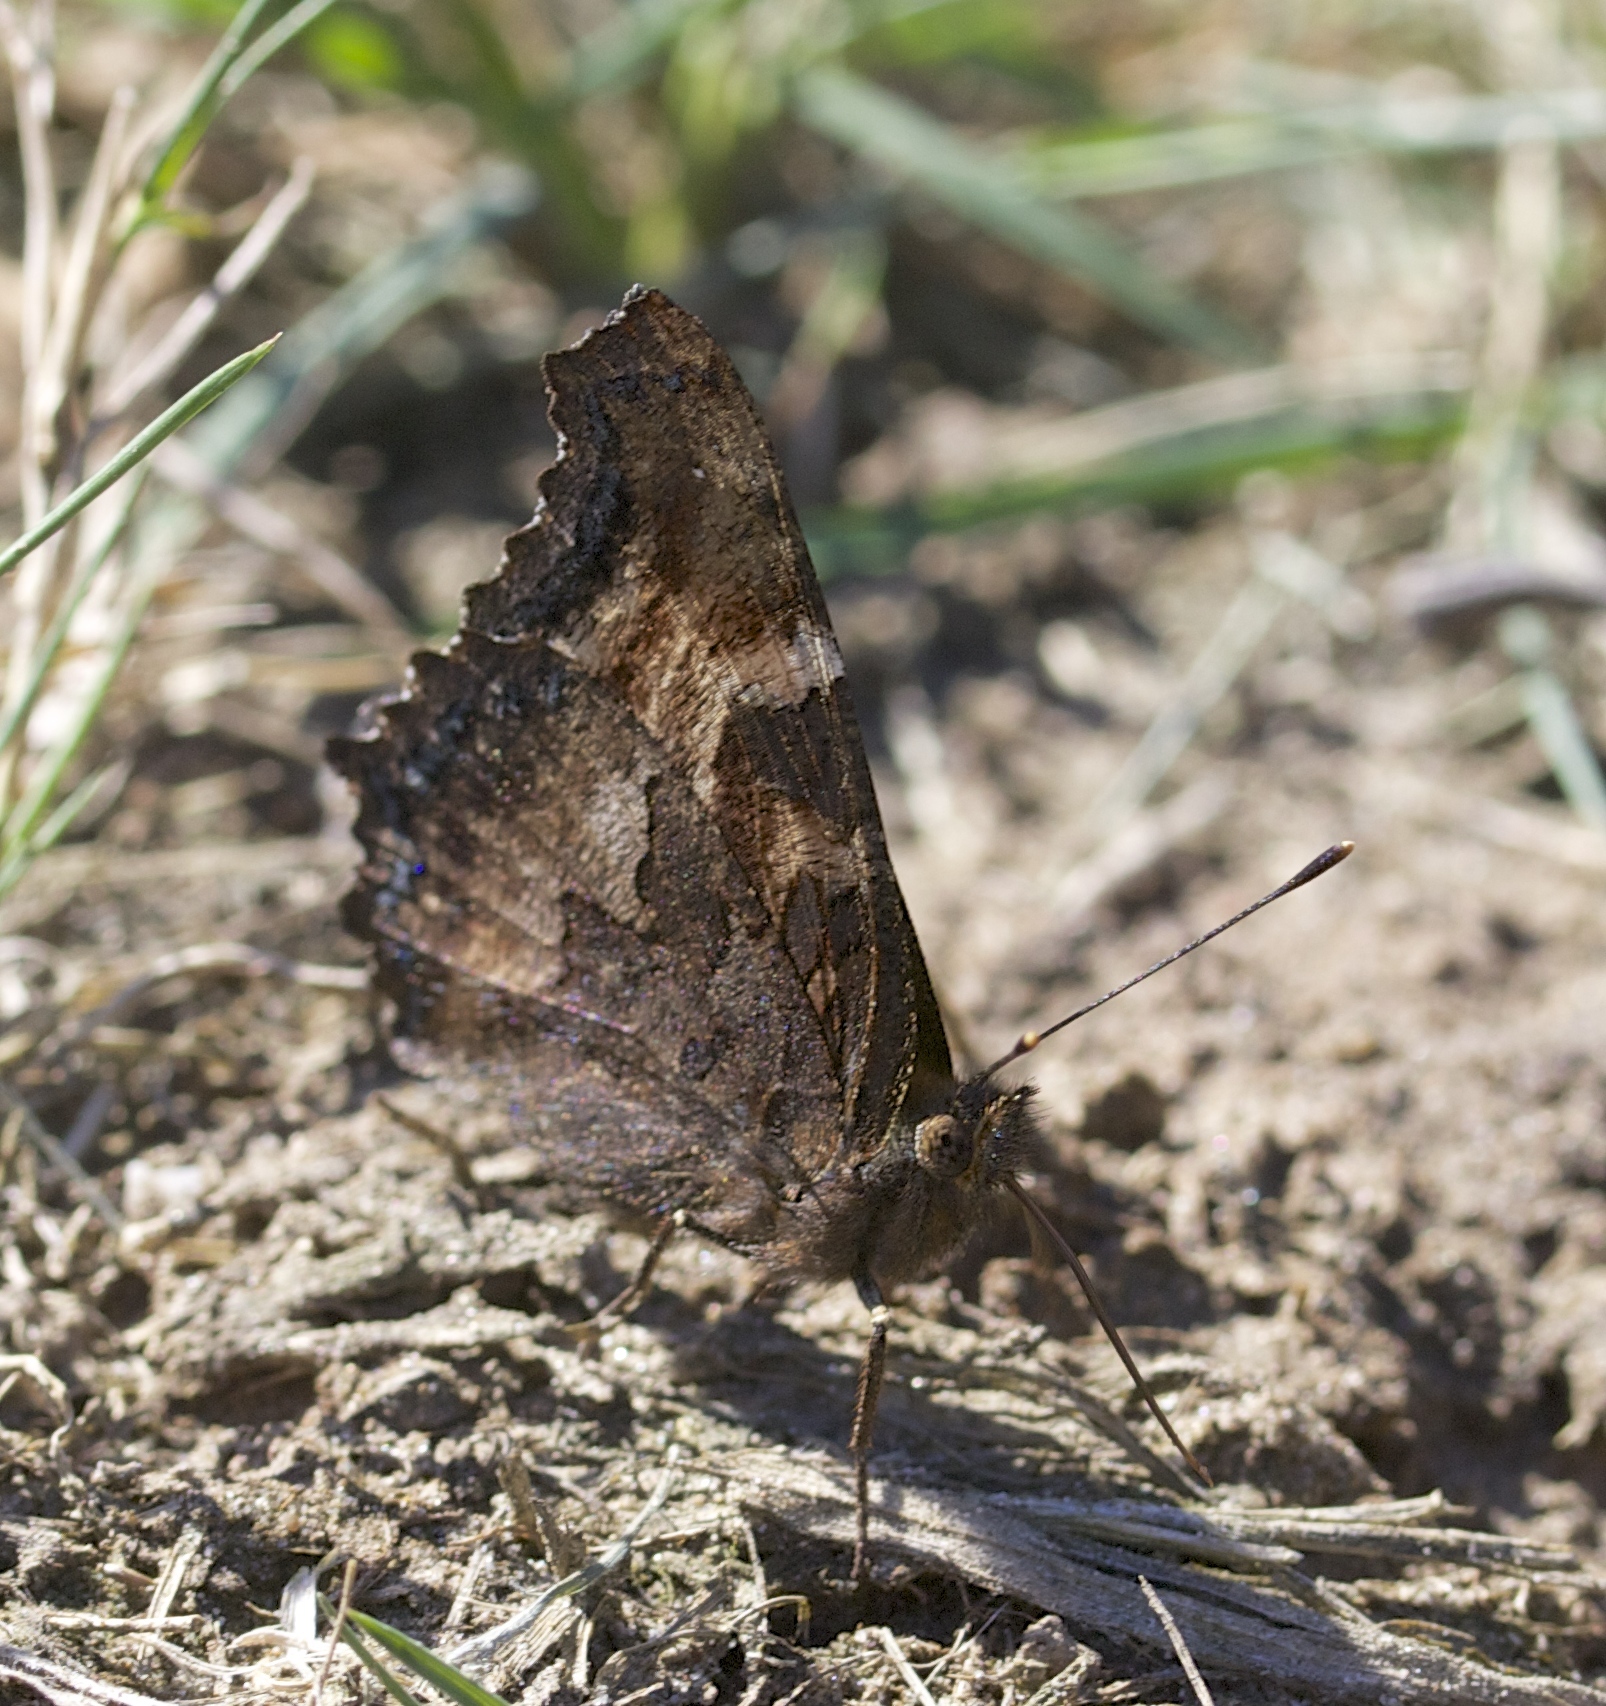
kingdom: Animalia
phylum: Arthropoda
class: Insecta
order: Lepidoptera
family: Nymphalidae
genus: Nymphalis
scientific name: Nymphalis californica
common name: California tortoiseshell
